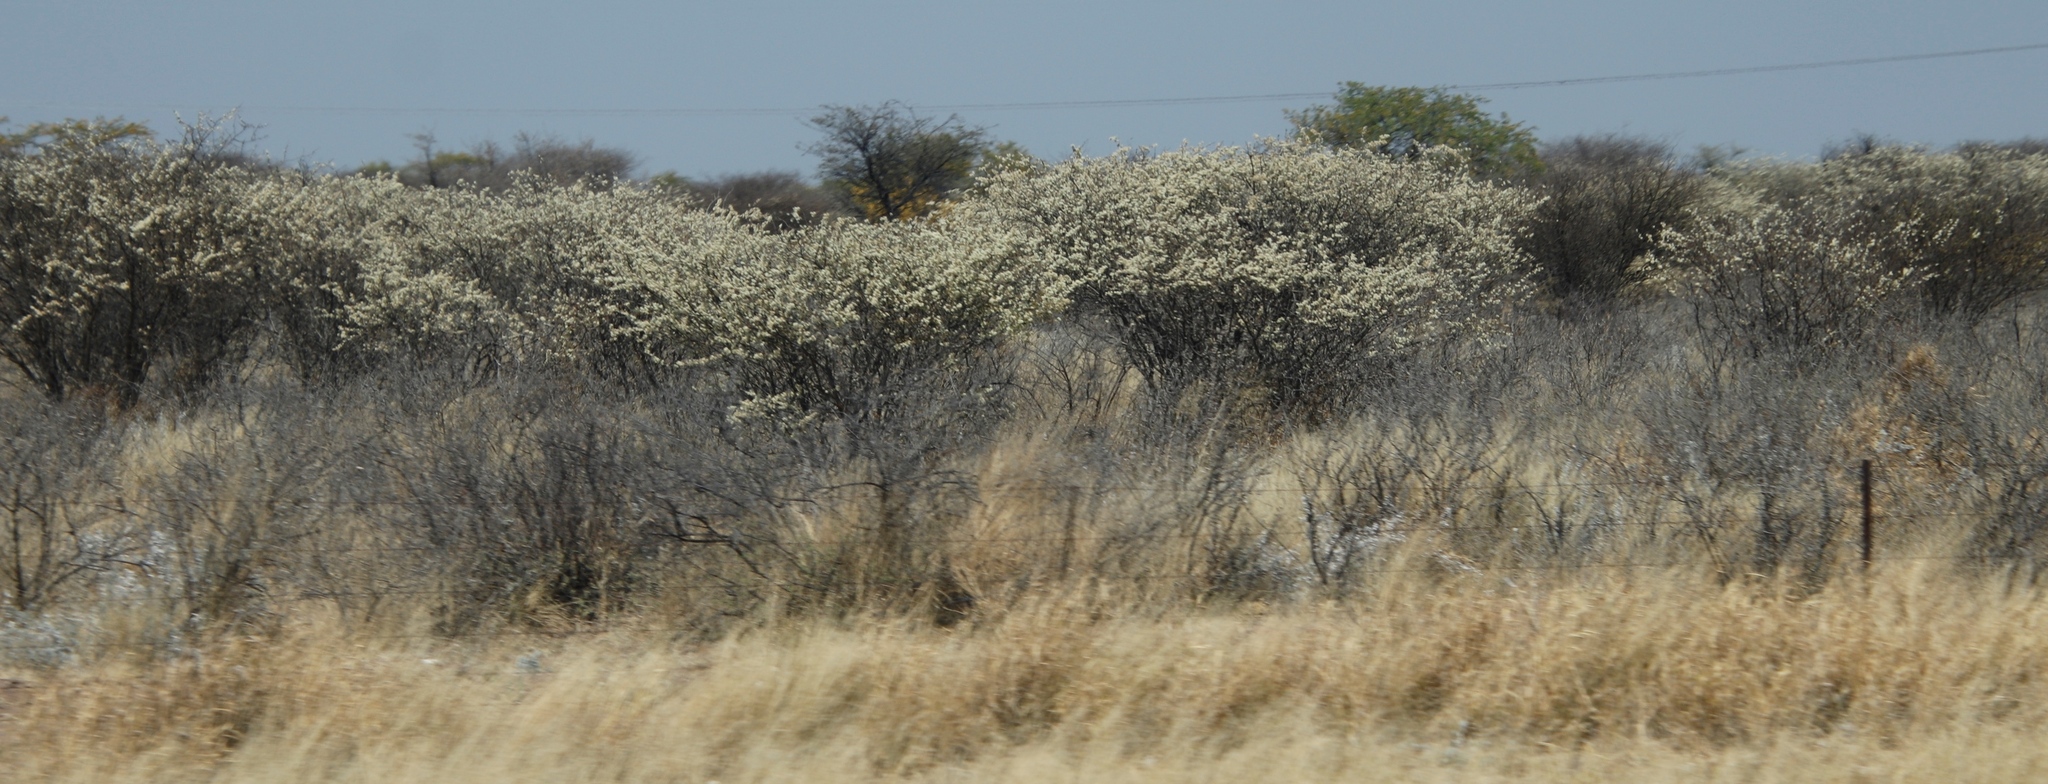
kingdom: Plantae
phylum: Tracheophyta
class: Magnoliopsida
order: Fabales
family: Fabaceae
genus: Senegalia
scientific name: Senegalia mellifera
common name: Hookthorn
